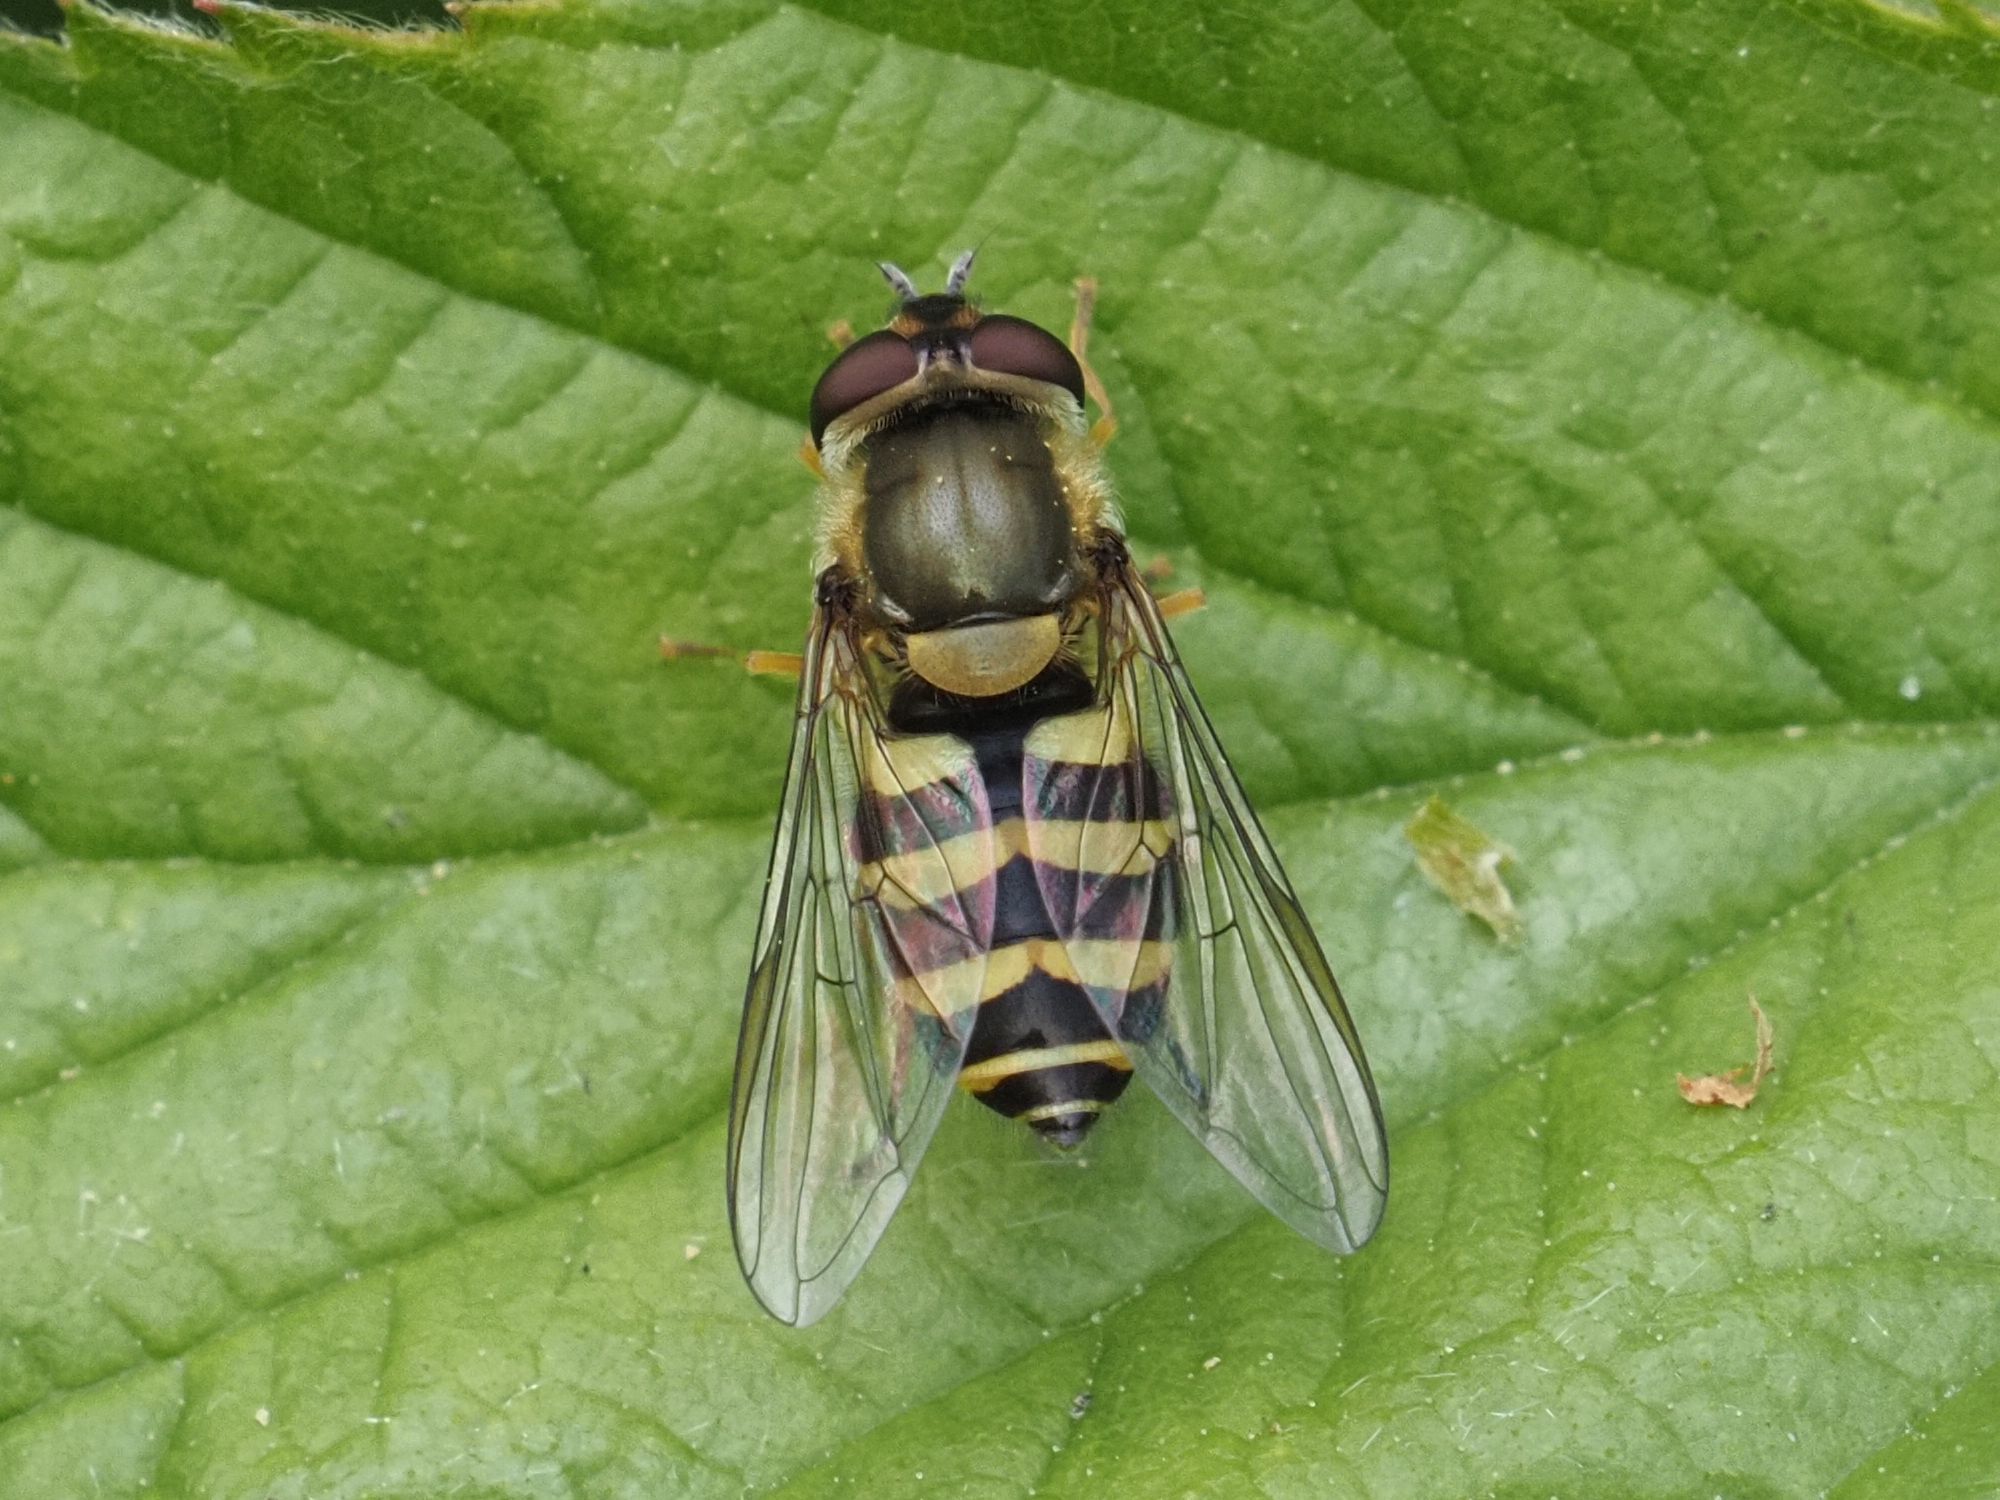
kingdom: Animalia
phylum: Arthropoda
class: Insecta
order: Diptera
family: Syrphidae
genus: Syrphus
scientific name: Syrphus
